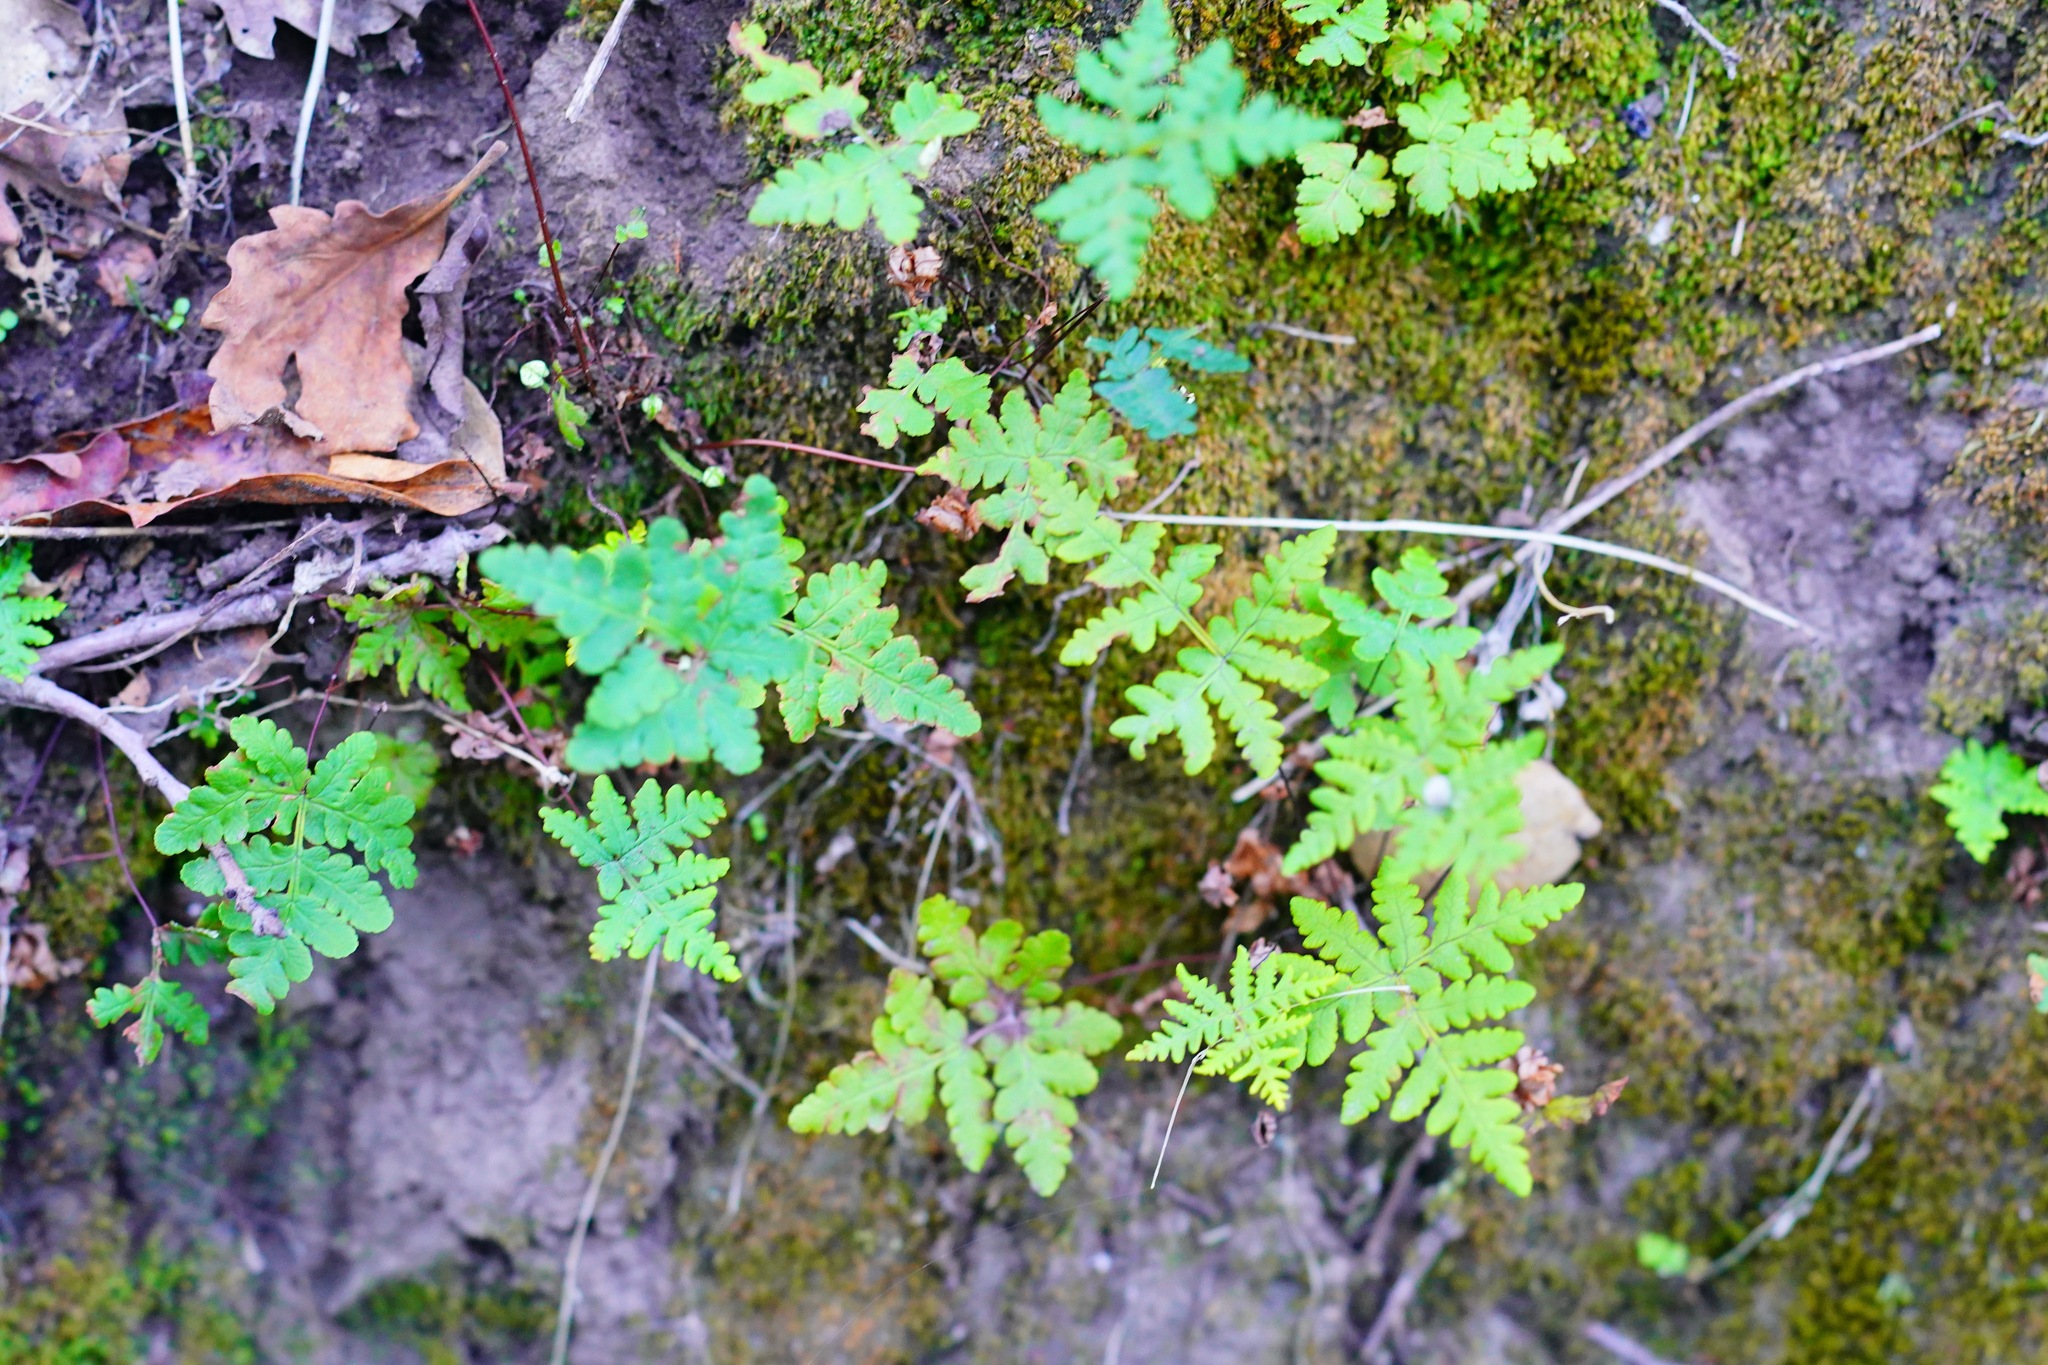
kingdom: Plantae
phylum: Tracheophyta
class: Polypodiopsida
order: Polypodiales
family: Pteridaceae
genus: Pentagramma
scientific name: Pentagramma triangularis
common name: Gold fern
